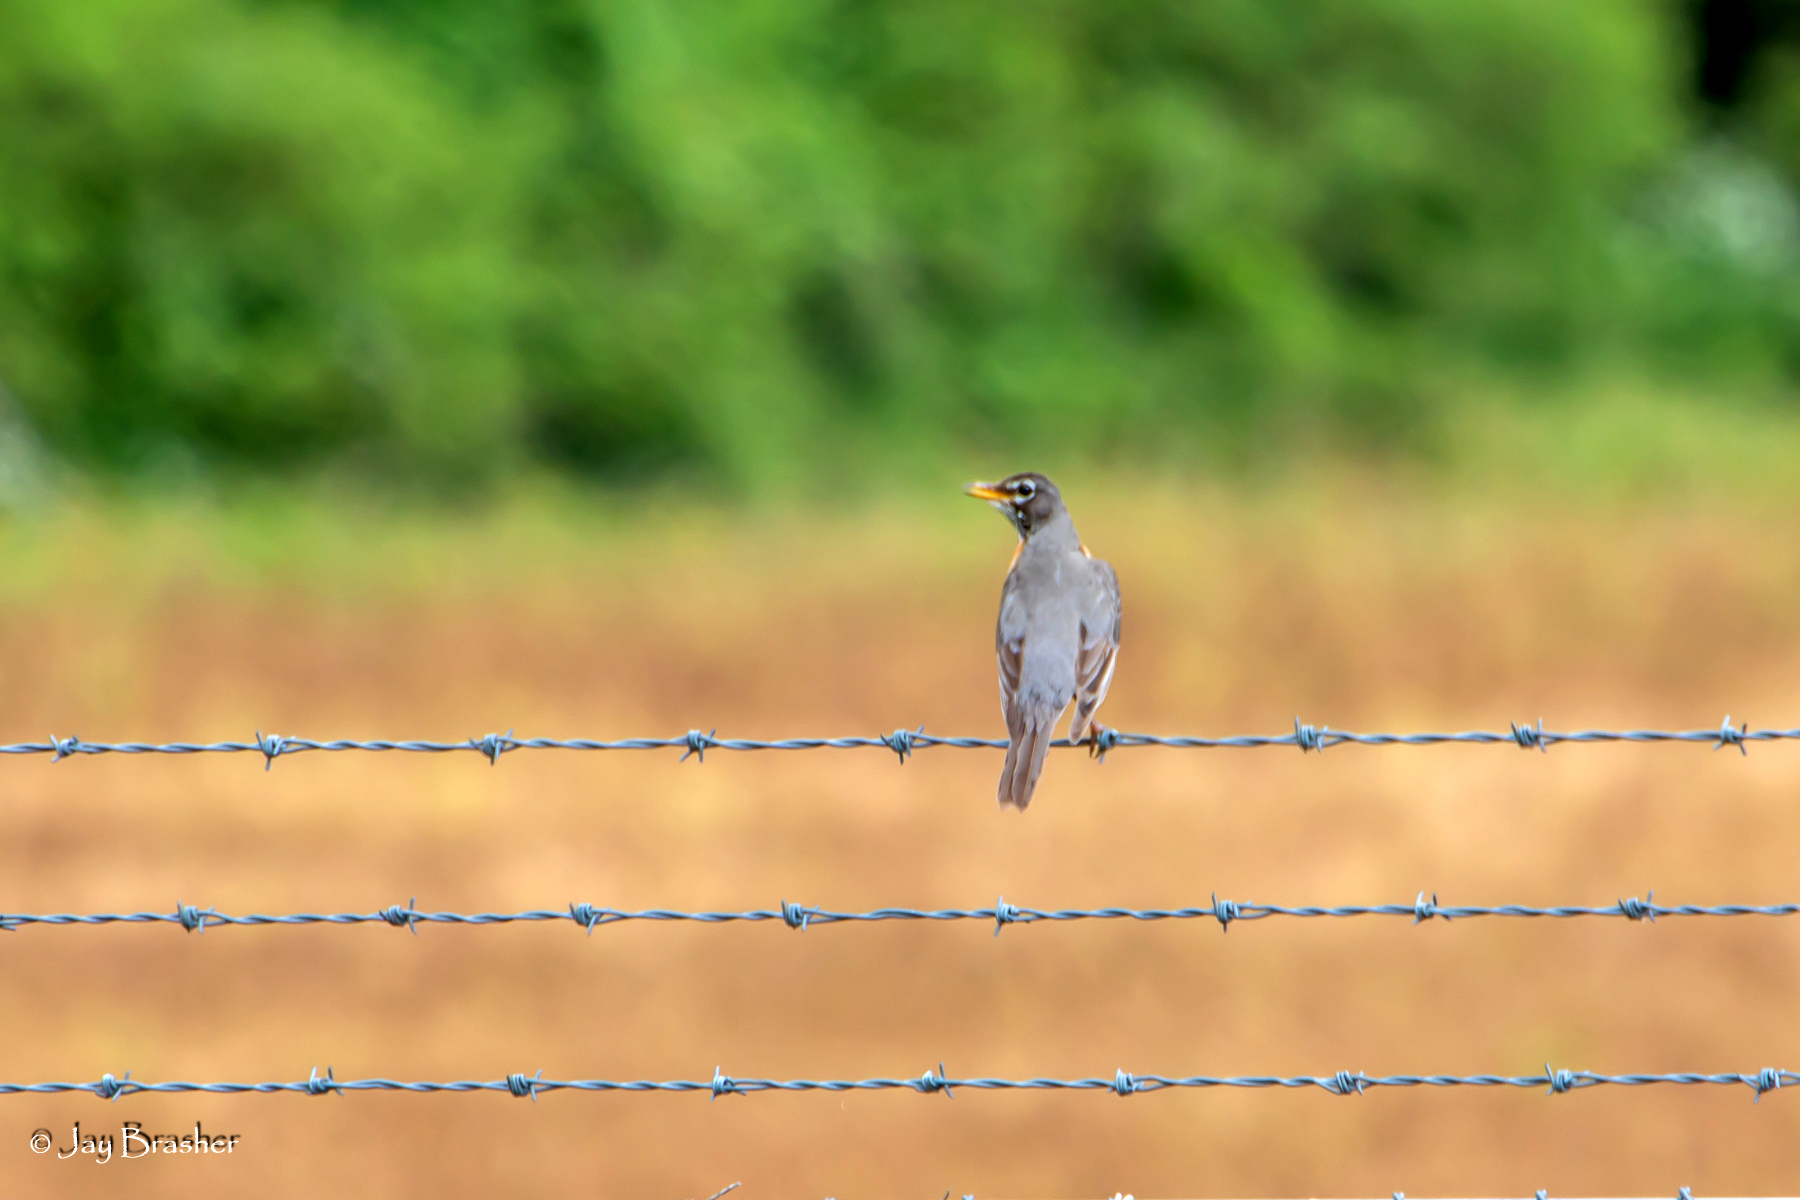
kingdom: Animalia
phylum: Chordata
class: Aves
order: Passeriformes
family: Turdidae
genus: Turdus
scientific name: Turdus migratorius
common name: American robin
